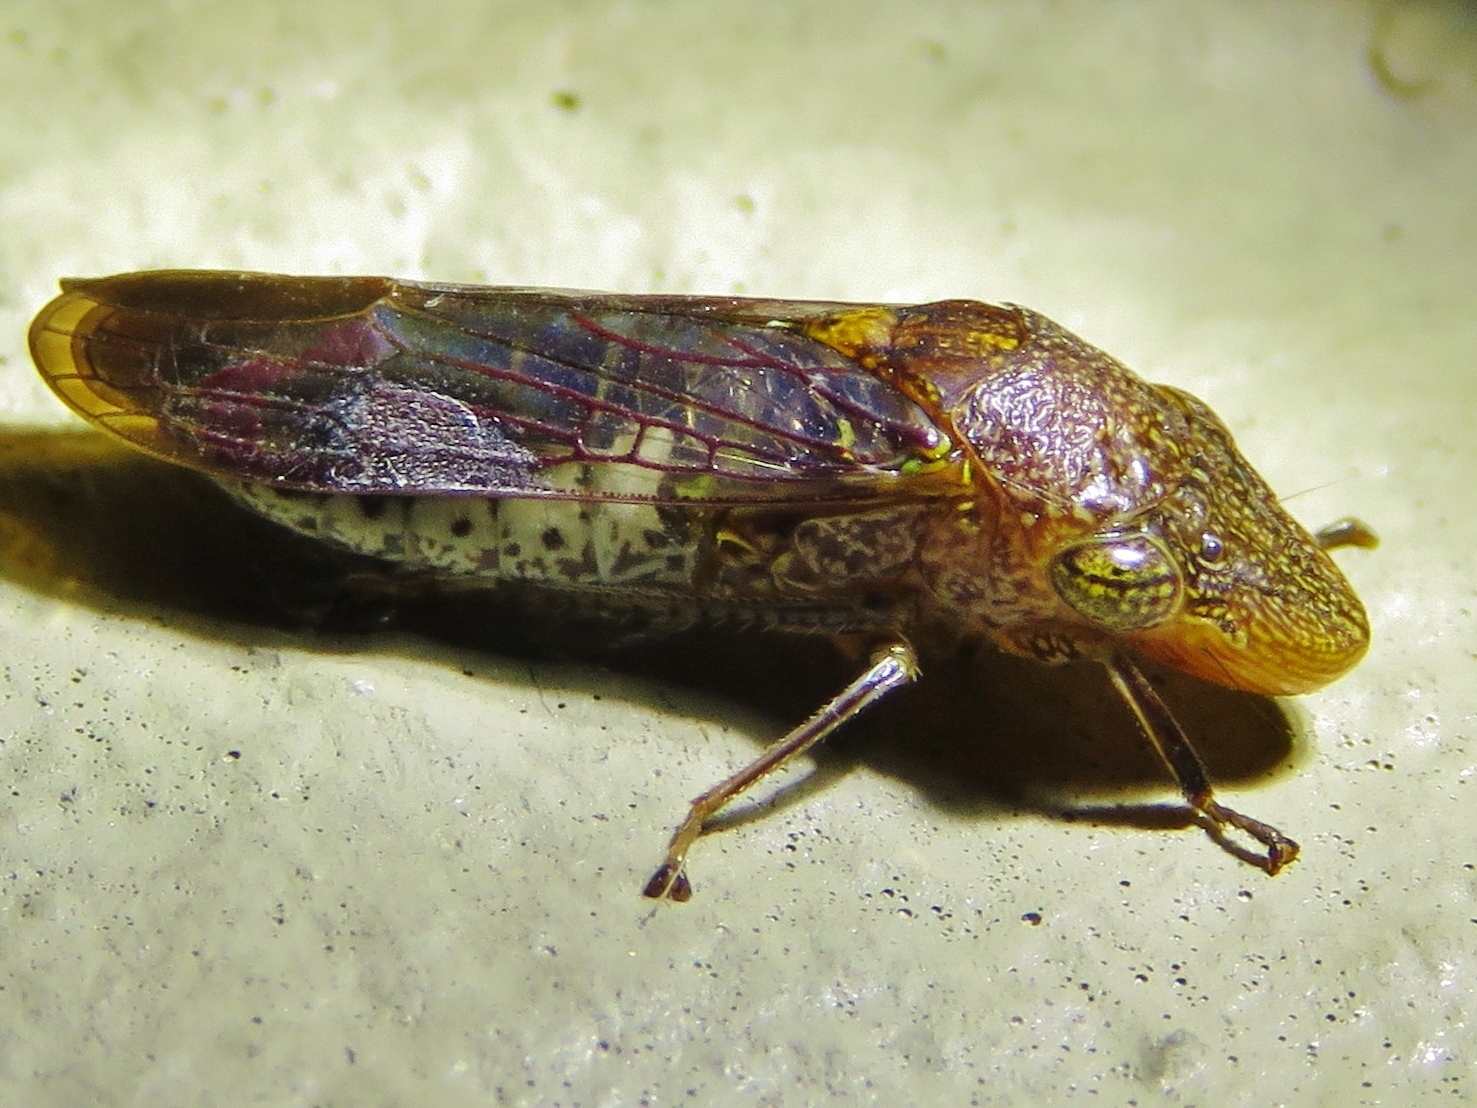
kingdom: Animalia
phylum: Arthropoda
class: Insecta
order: Hemiptera
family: Cicadellidae
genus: Homalodisca
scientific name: Homalodisca vitripennis
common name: Glassy-winged sharpshooter
